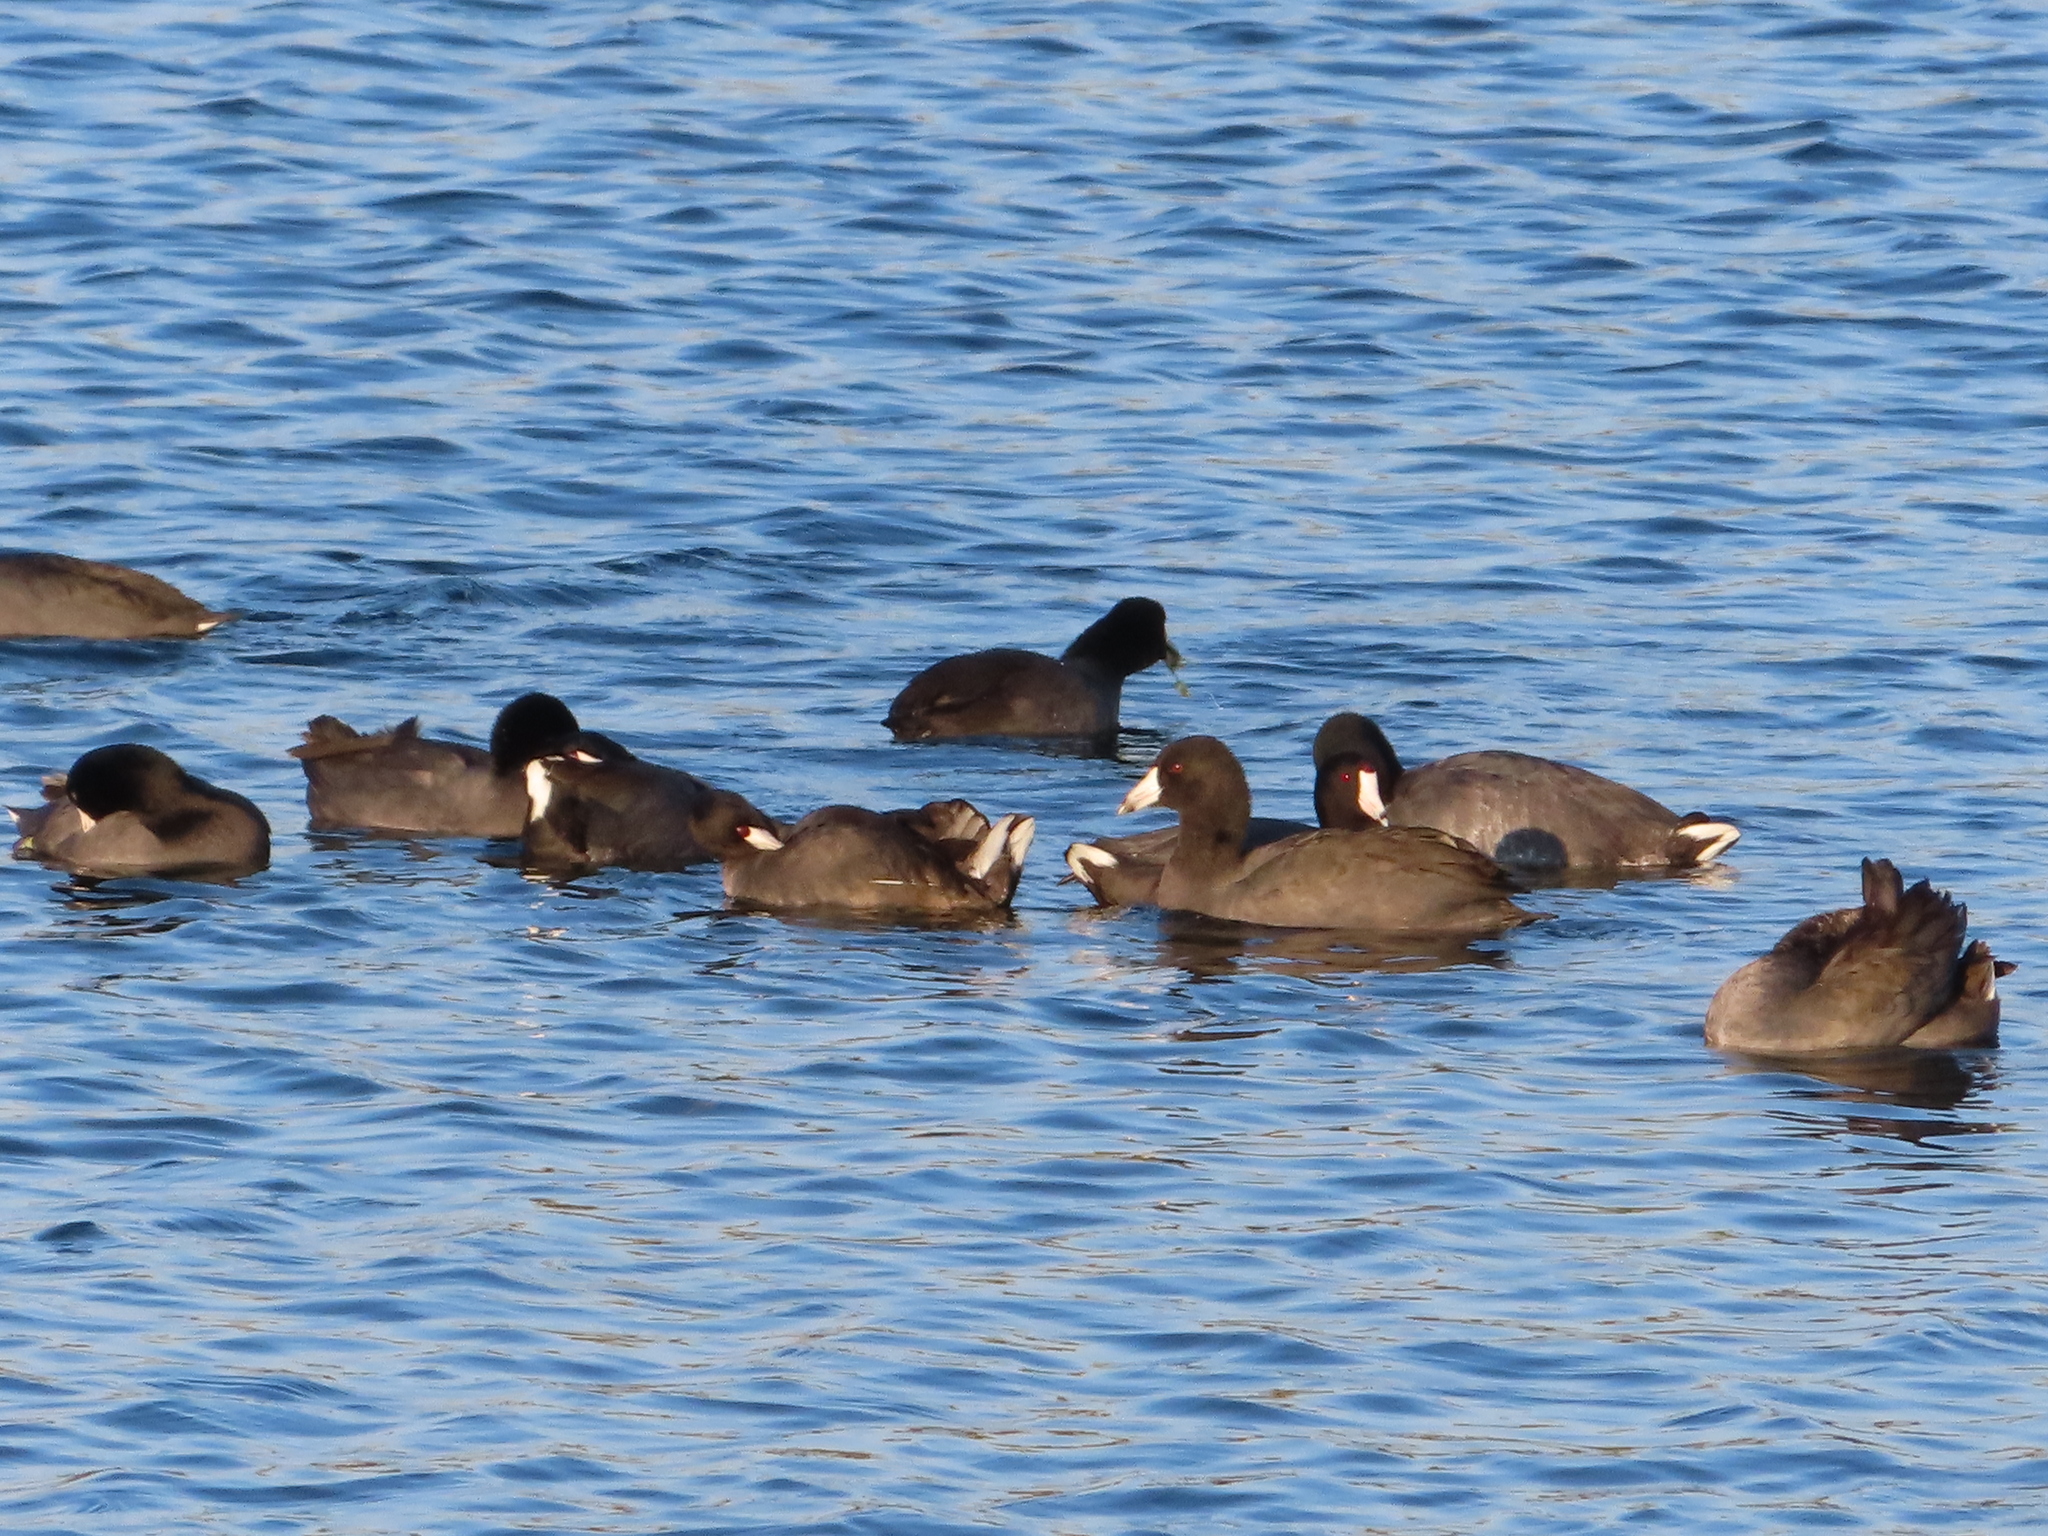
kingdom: Animalia
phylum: Chordata
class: Aves
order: Gruiformes
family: Rallidae
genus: Fulica
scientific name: Fulica americana
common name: American coot
